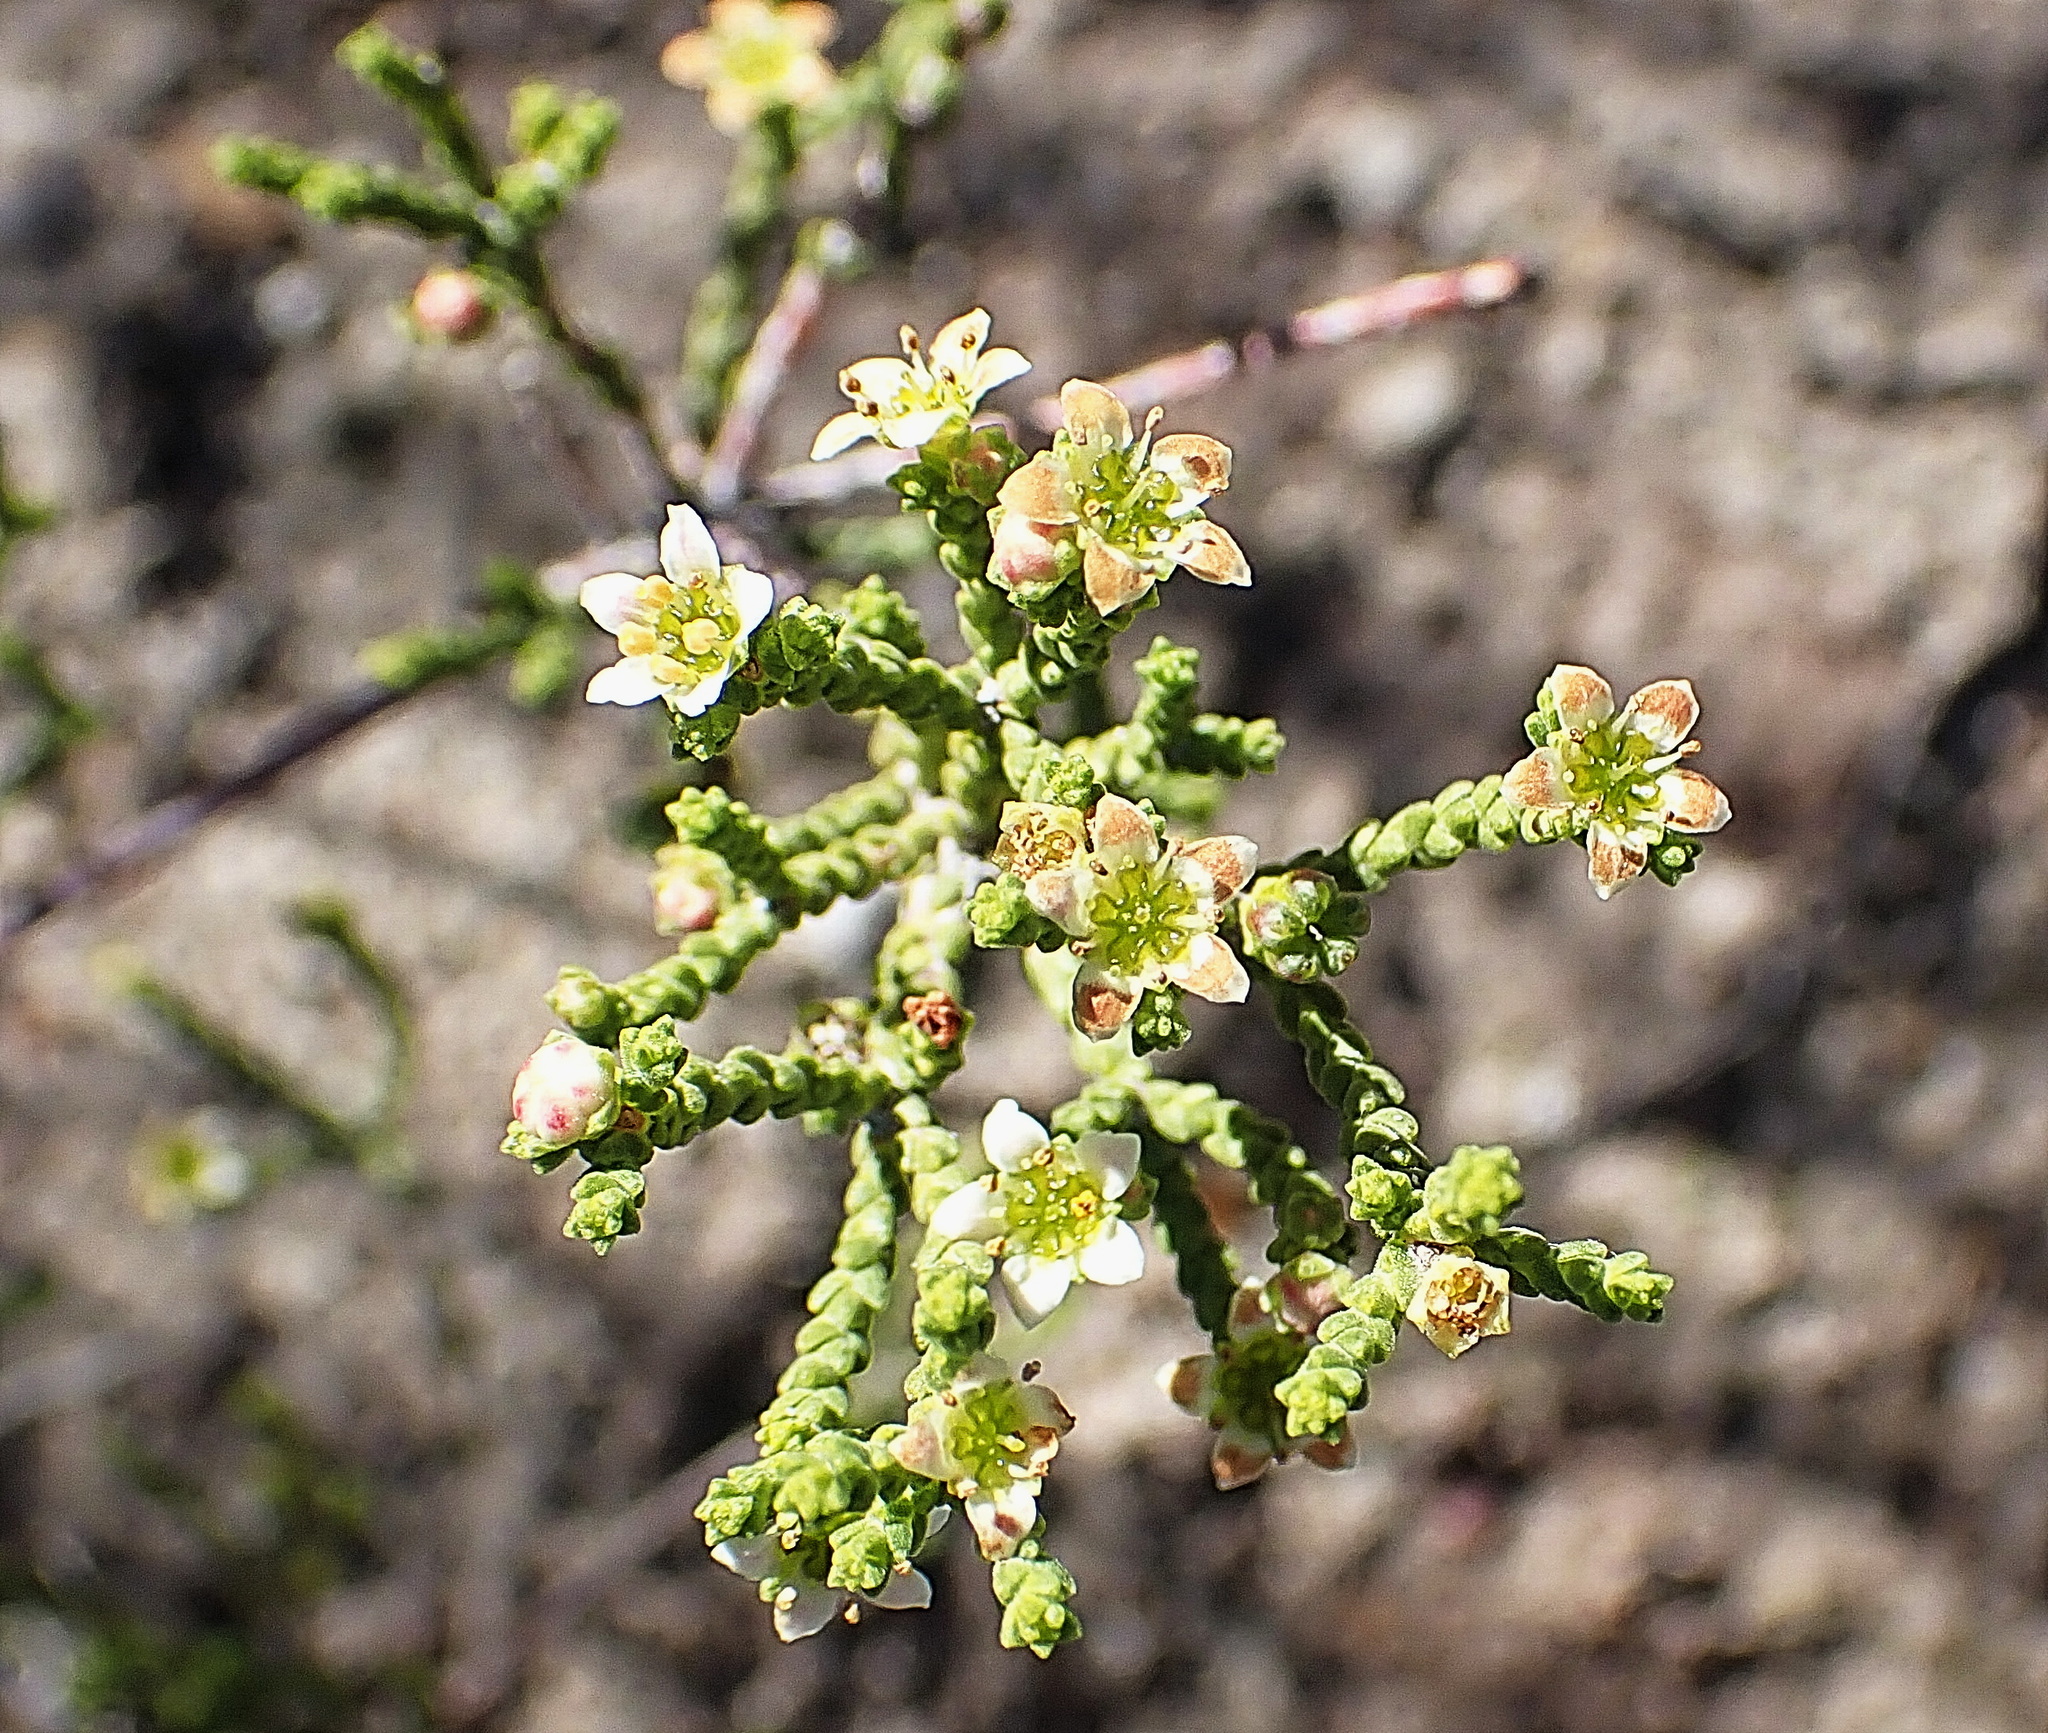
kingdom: Plantae
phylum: Tracheophyta
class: Magnoliopsida
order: Sapindales
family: Rutaceae
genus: Diosma
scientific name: Diosma apetala
